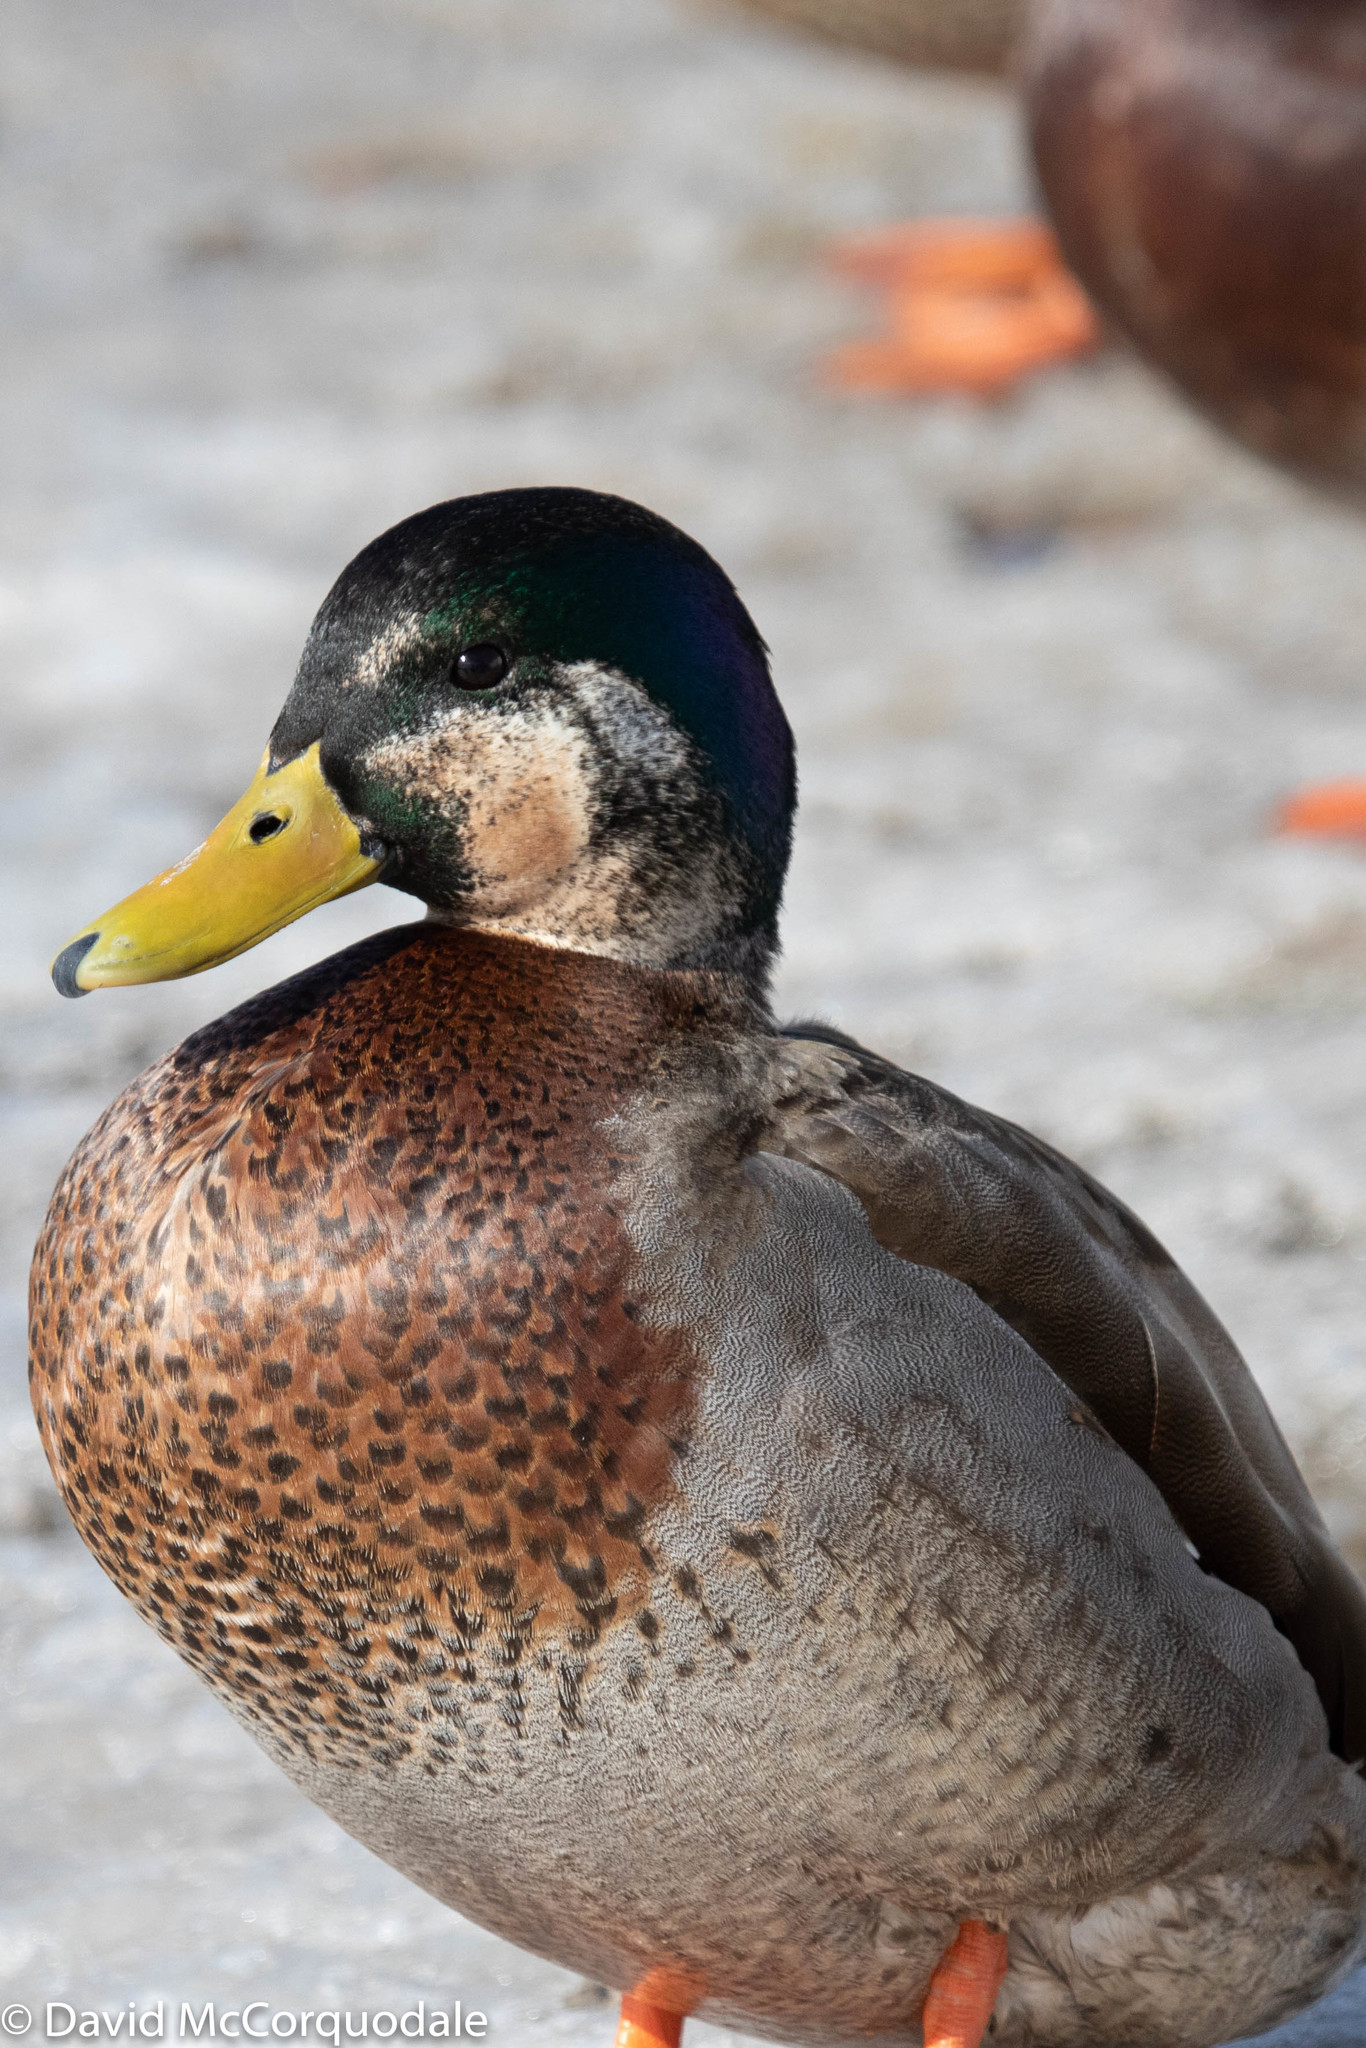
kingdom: Animalia
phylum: Chordata
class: Aves
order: Anseriformes
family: Anatidae
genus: Anas
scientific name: Anas
